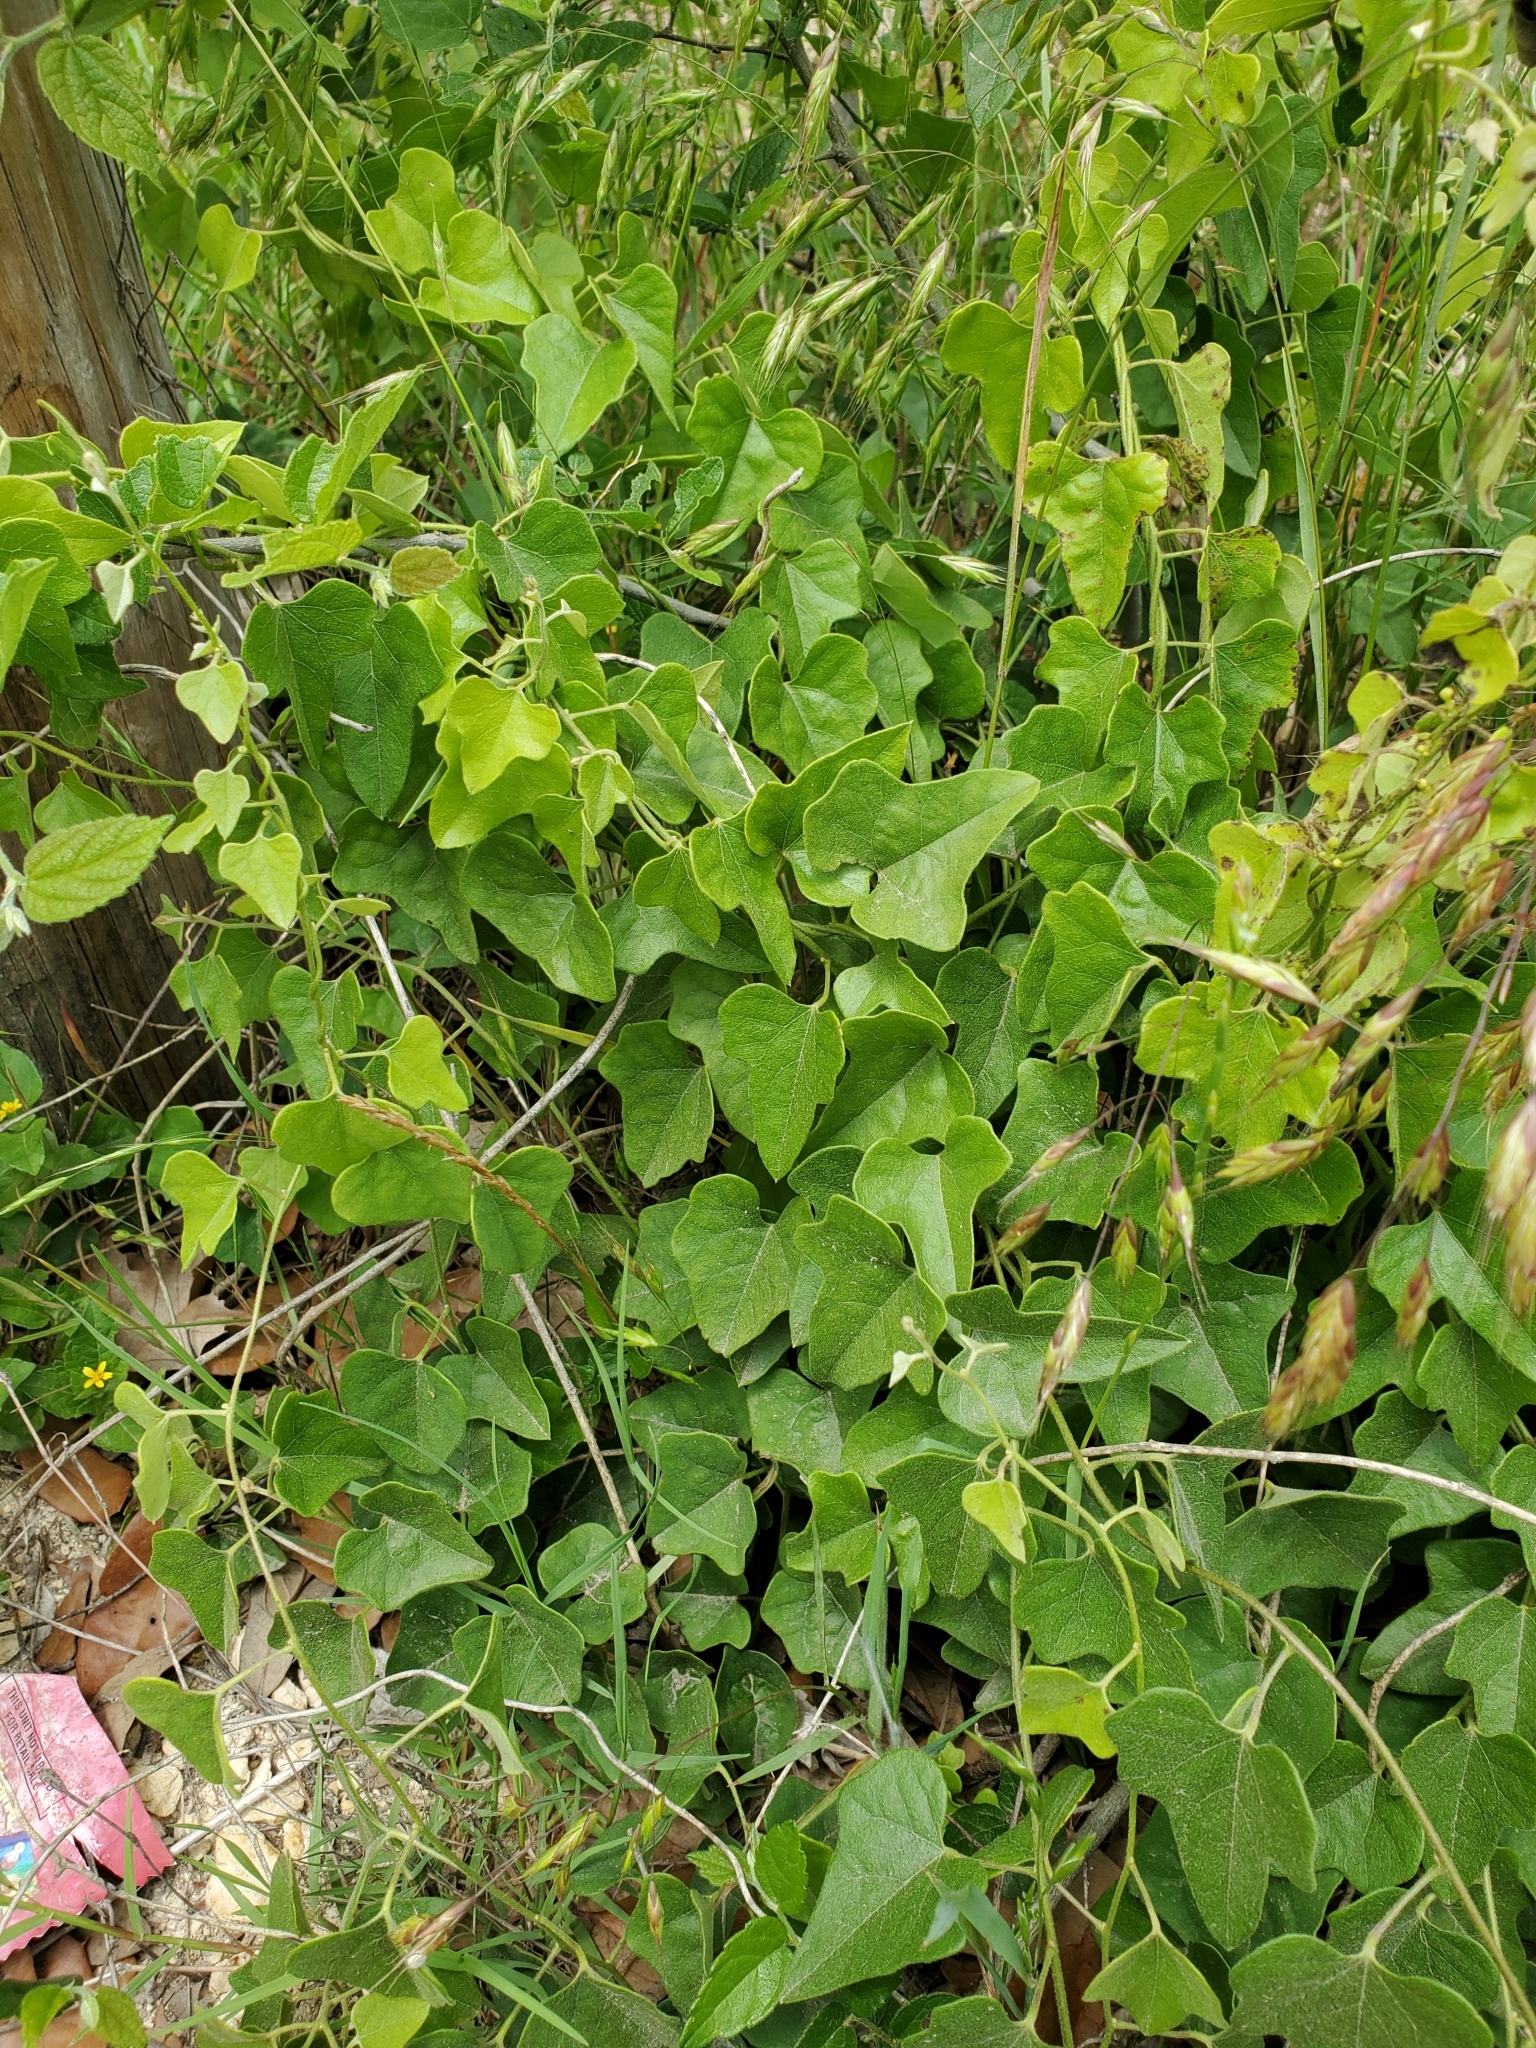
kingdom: Plantae
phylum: Tracheophyta
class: Magnoliopsida
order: Ranunculales
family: Menispermaceae
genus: Cocculus
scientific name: Cocculus carolinus
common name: Carolina moonseed
